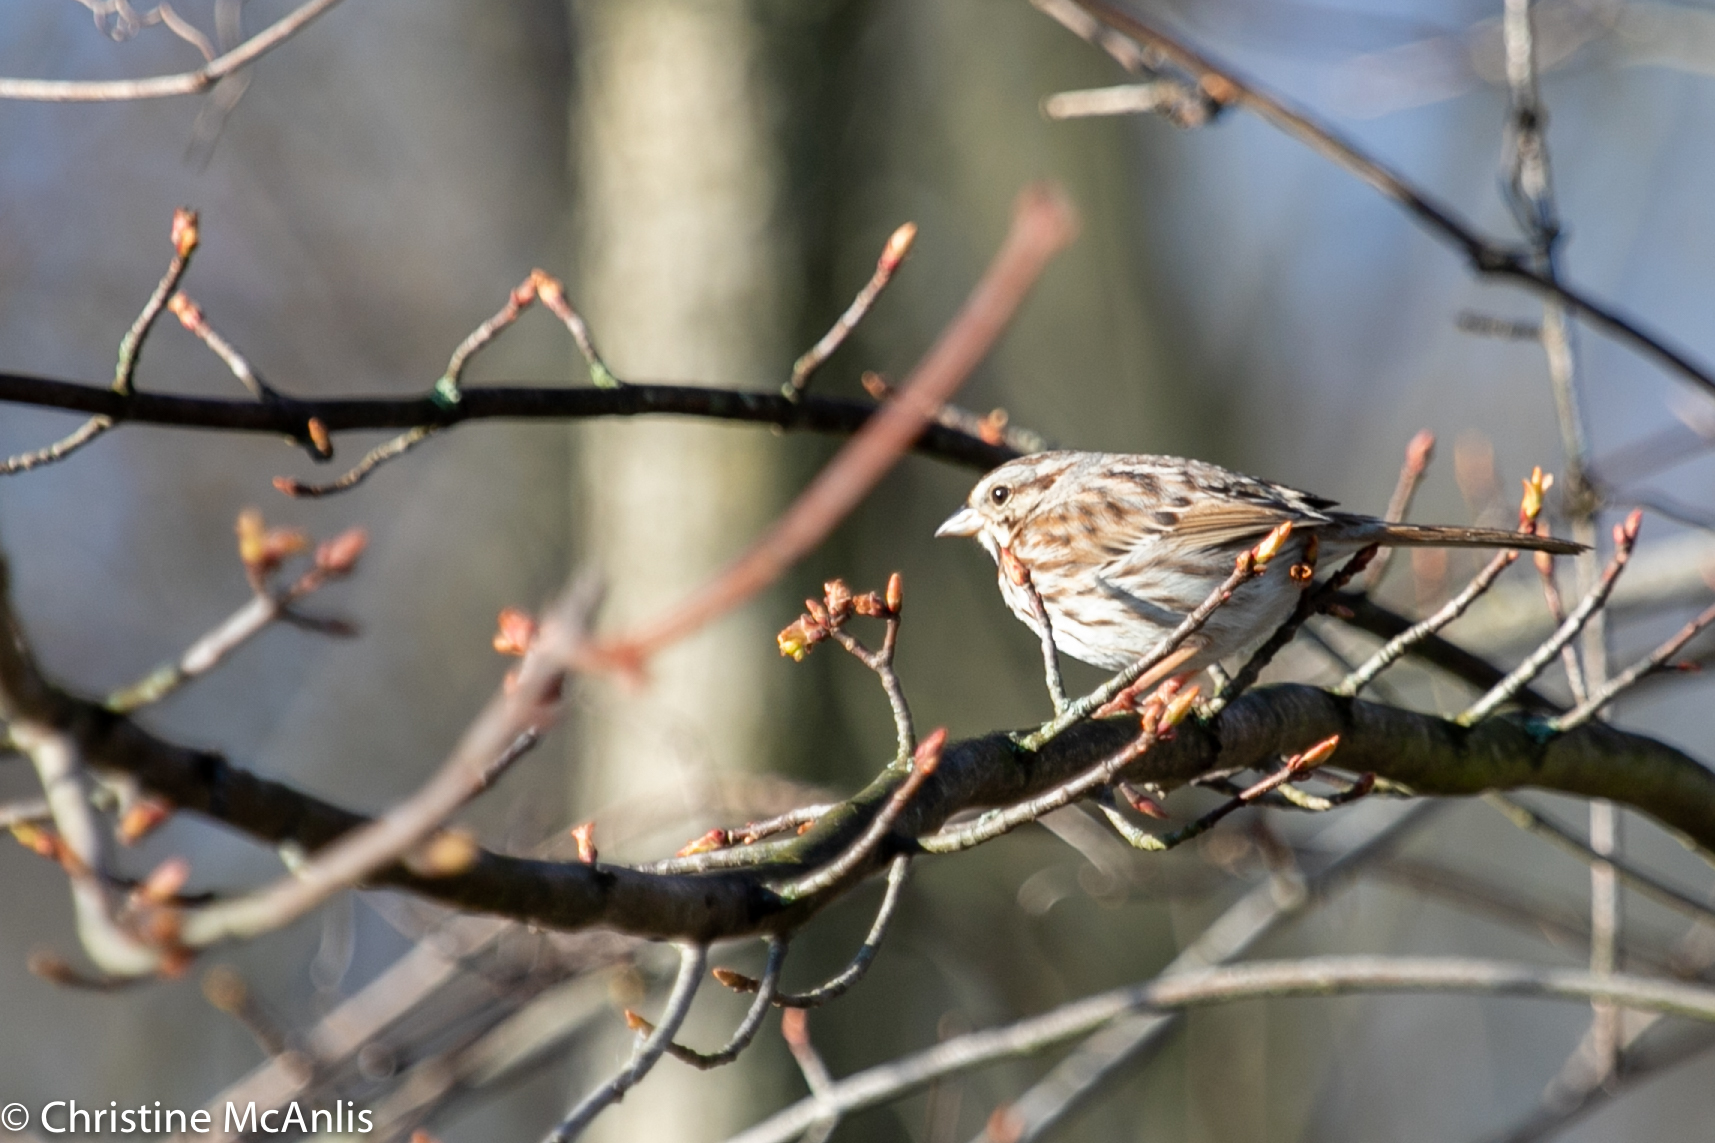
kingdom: Animalia
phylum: Chordata
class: Aves
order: Passeriformes
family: Passerellidae
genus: Melospiza
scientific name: Melospiza melodia
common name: Song sparrow
